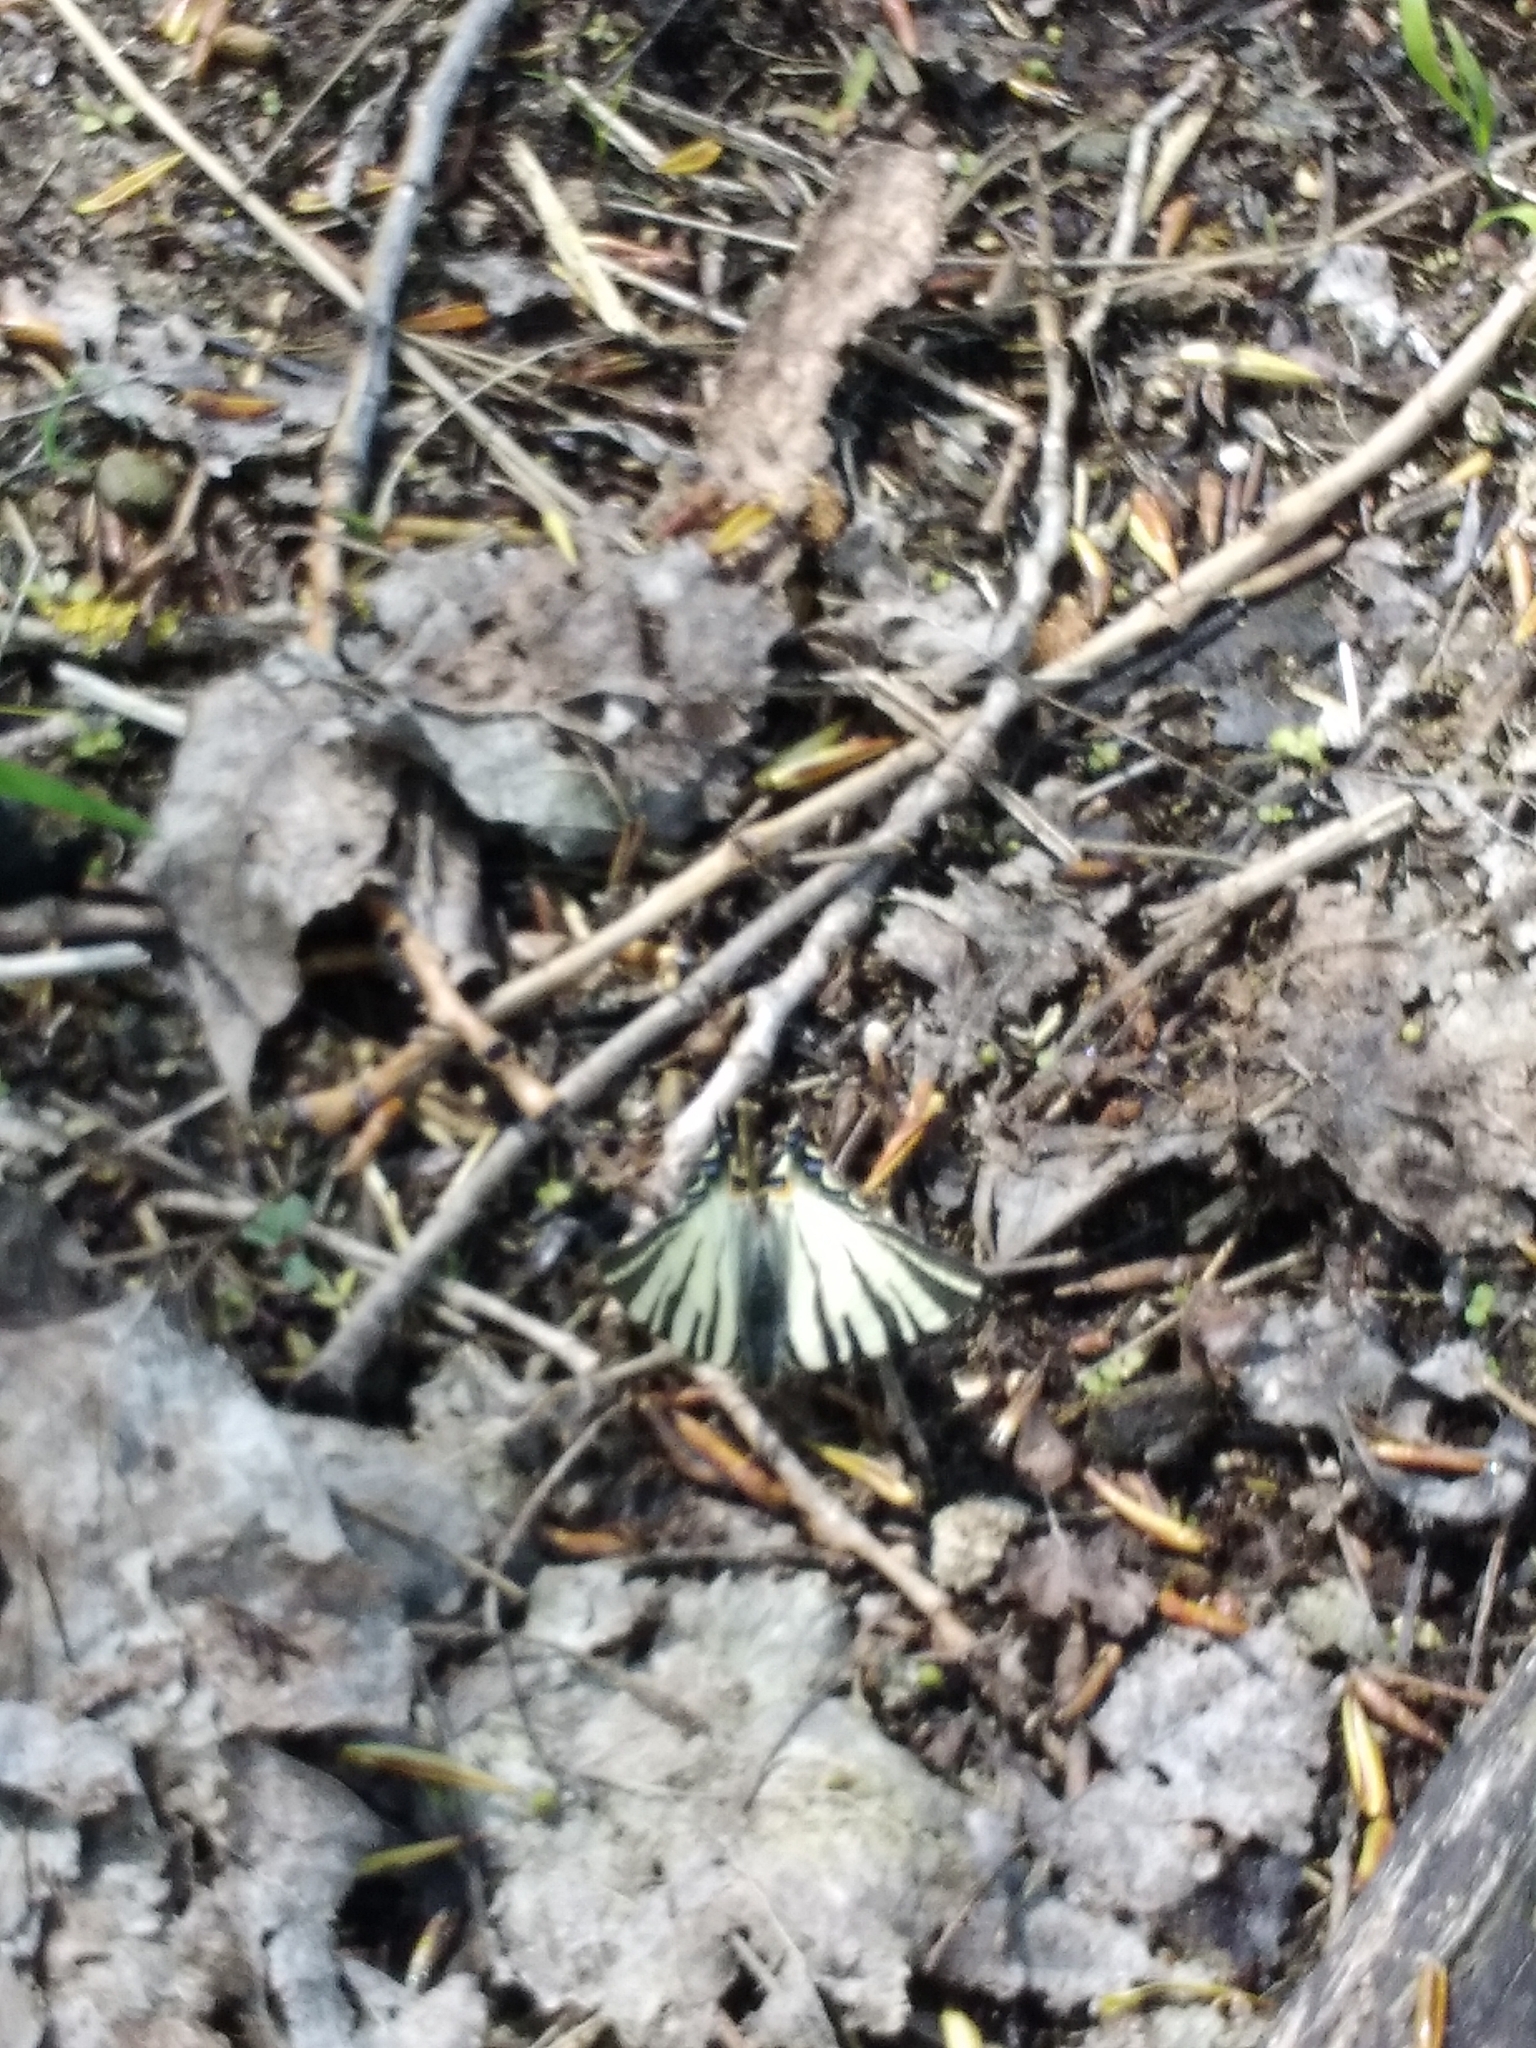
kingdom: Animalia
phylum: Arthropoda
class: Insecta
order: Lepidoptera
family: Papilionidae
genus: Iphiclides
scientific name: Iphiclides podalirius
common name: Scarce swallowtail
